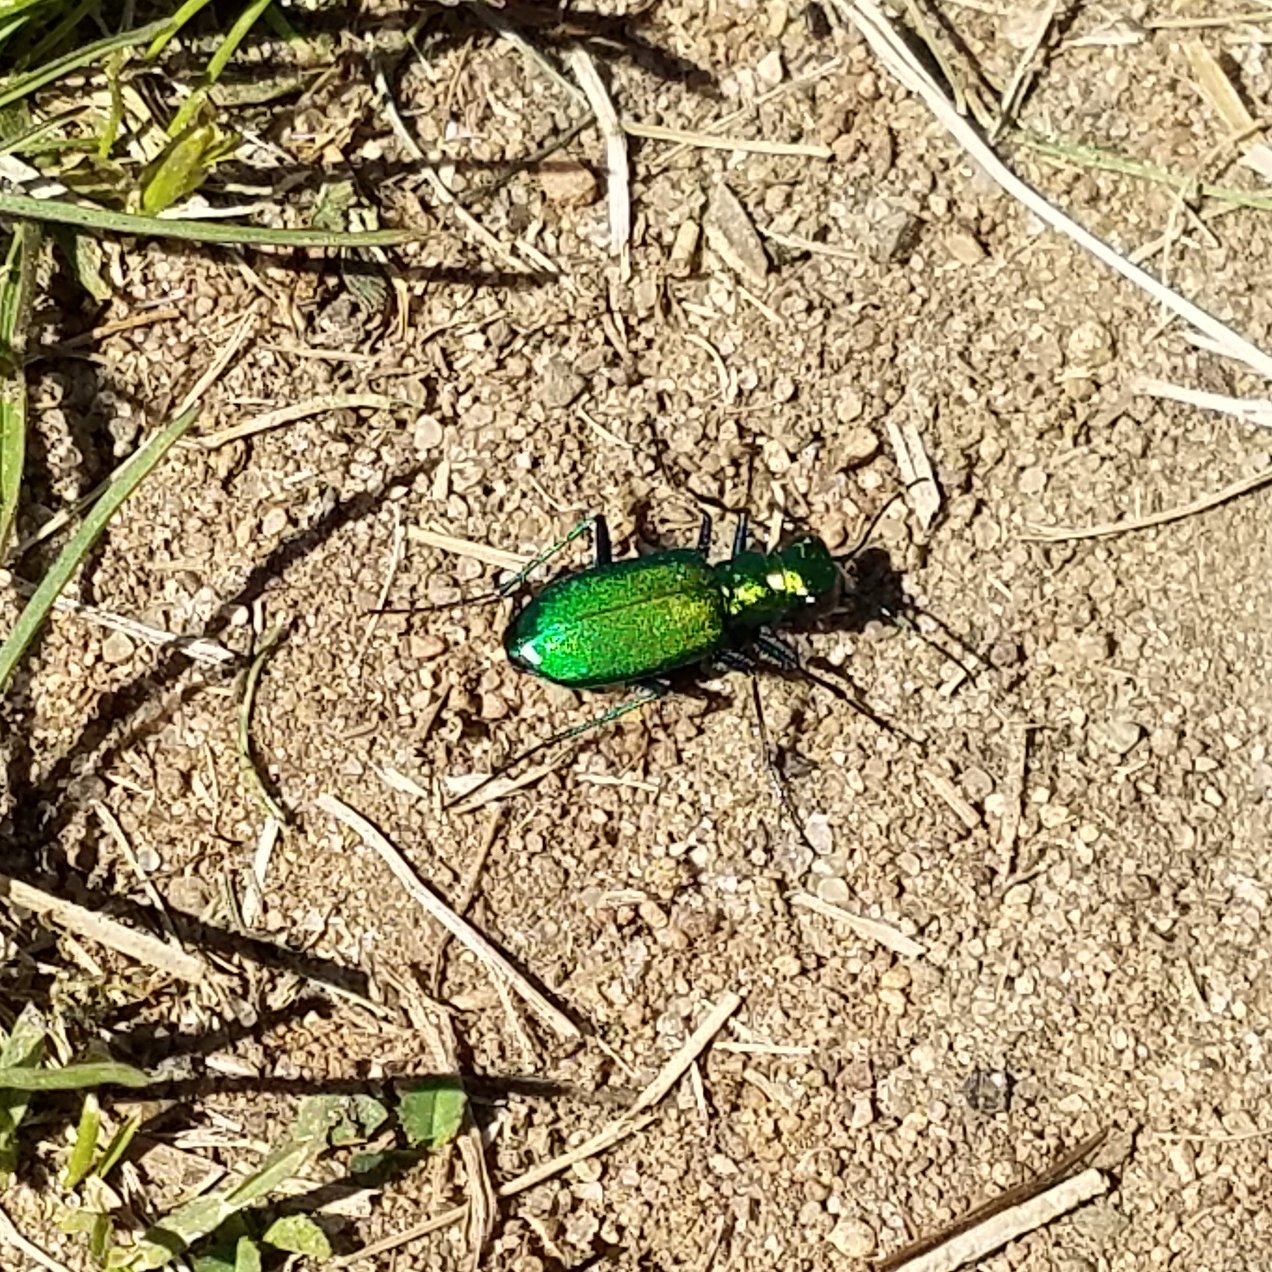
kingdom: Animalia
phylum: Arthropoda
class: Insecta
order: Coleoptera
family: Carabidae
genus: Cicindela
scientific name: Cicindela sexguttata
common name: Six-spotted tiger beetle
